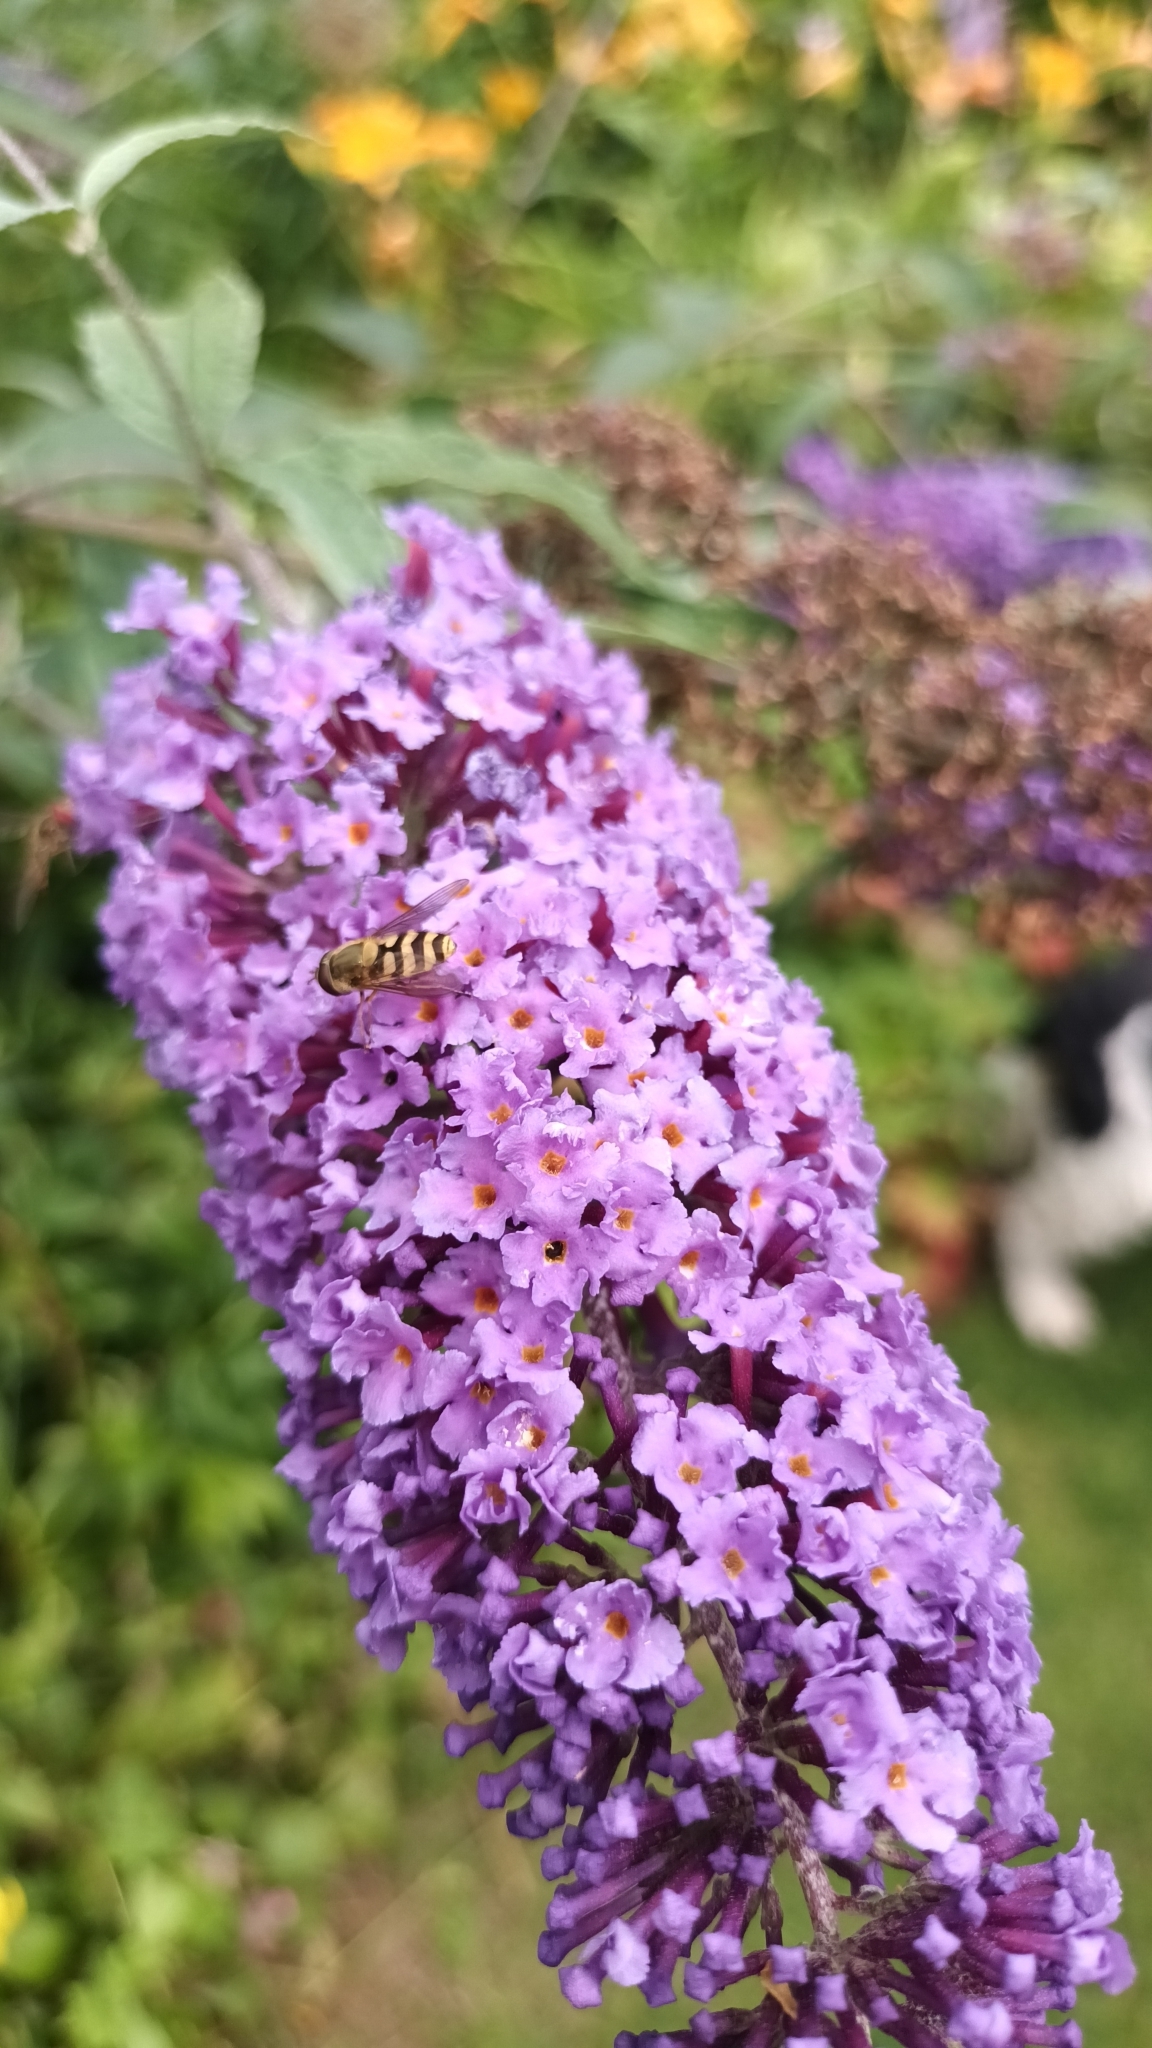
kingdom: Plantae
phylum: Tracheophyta
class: Magnoliopsida
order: Lamiales
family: Scrophulariaceae
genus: Buddleja
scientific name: Buddleja davidii
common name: Butterfly-bush
